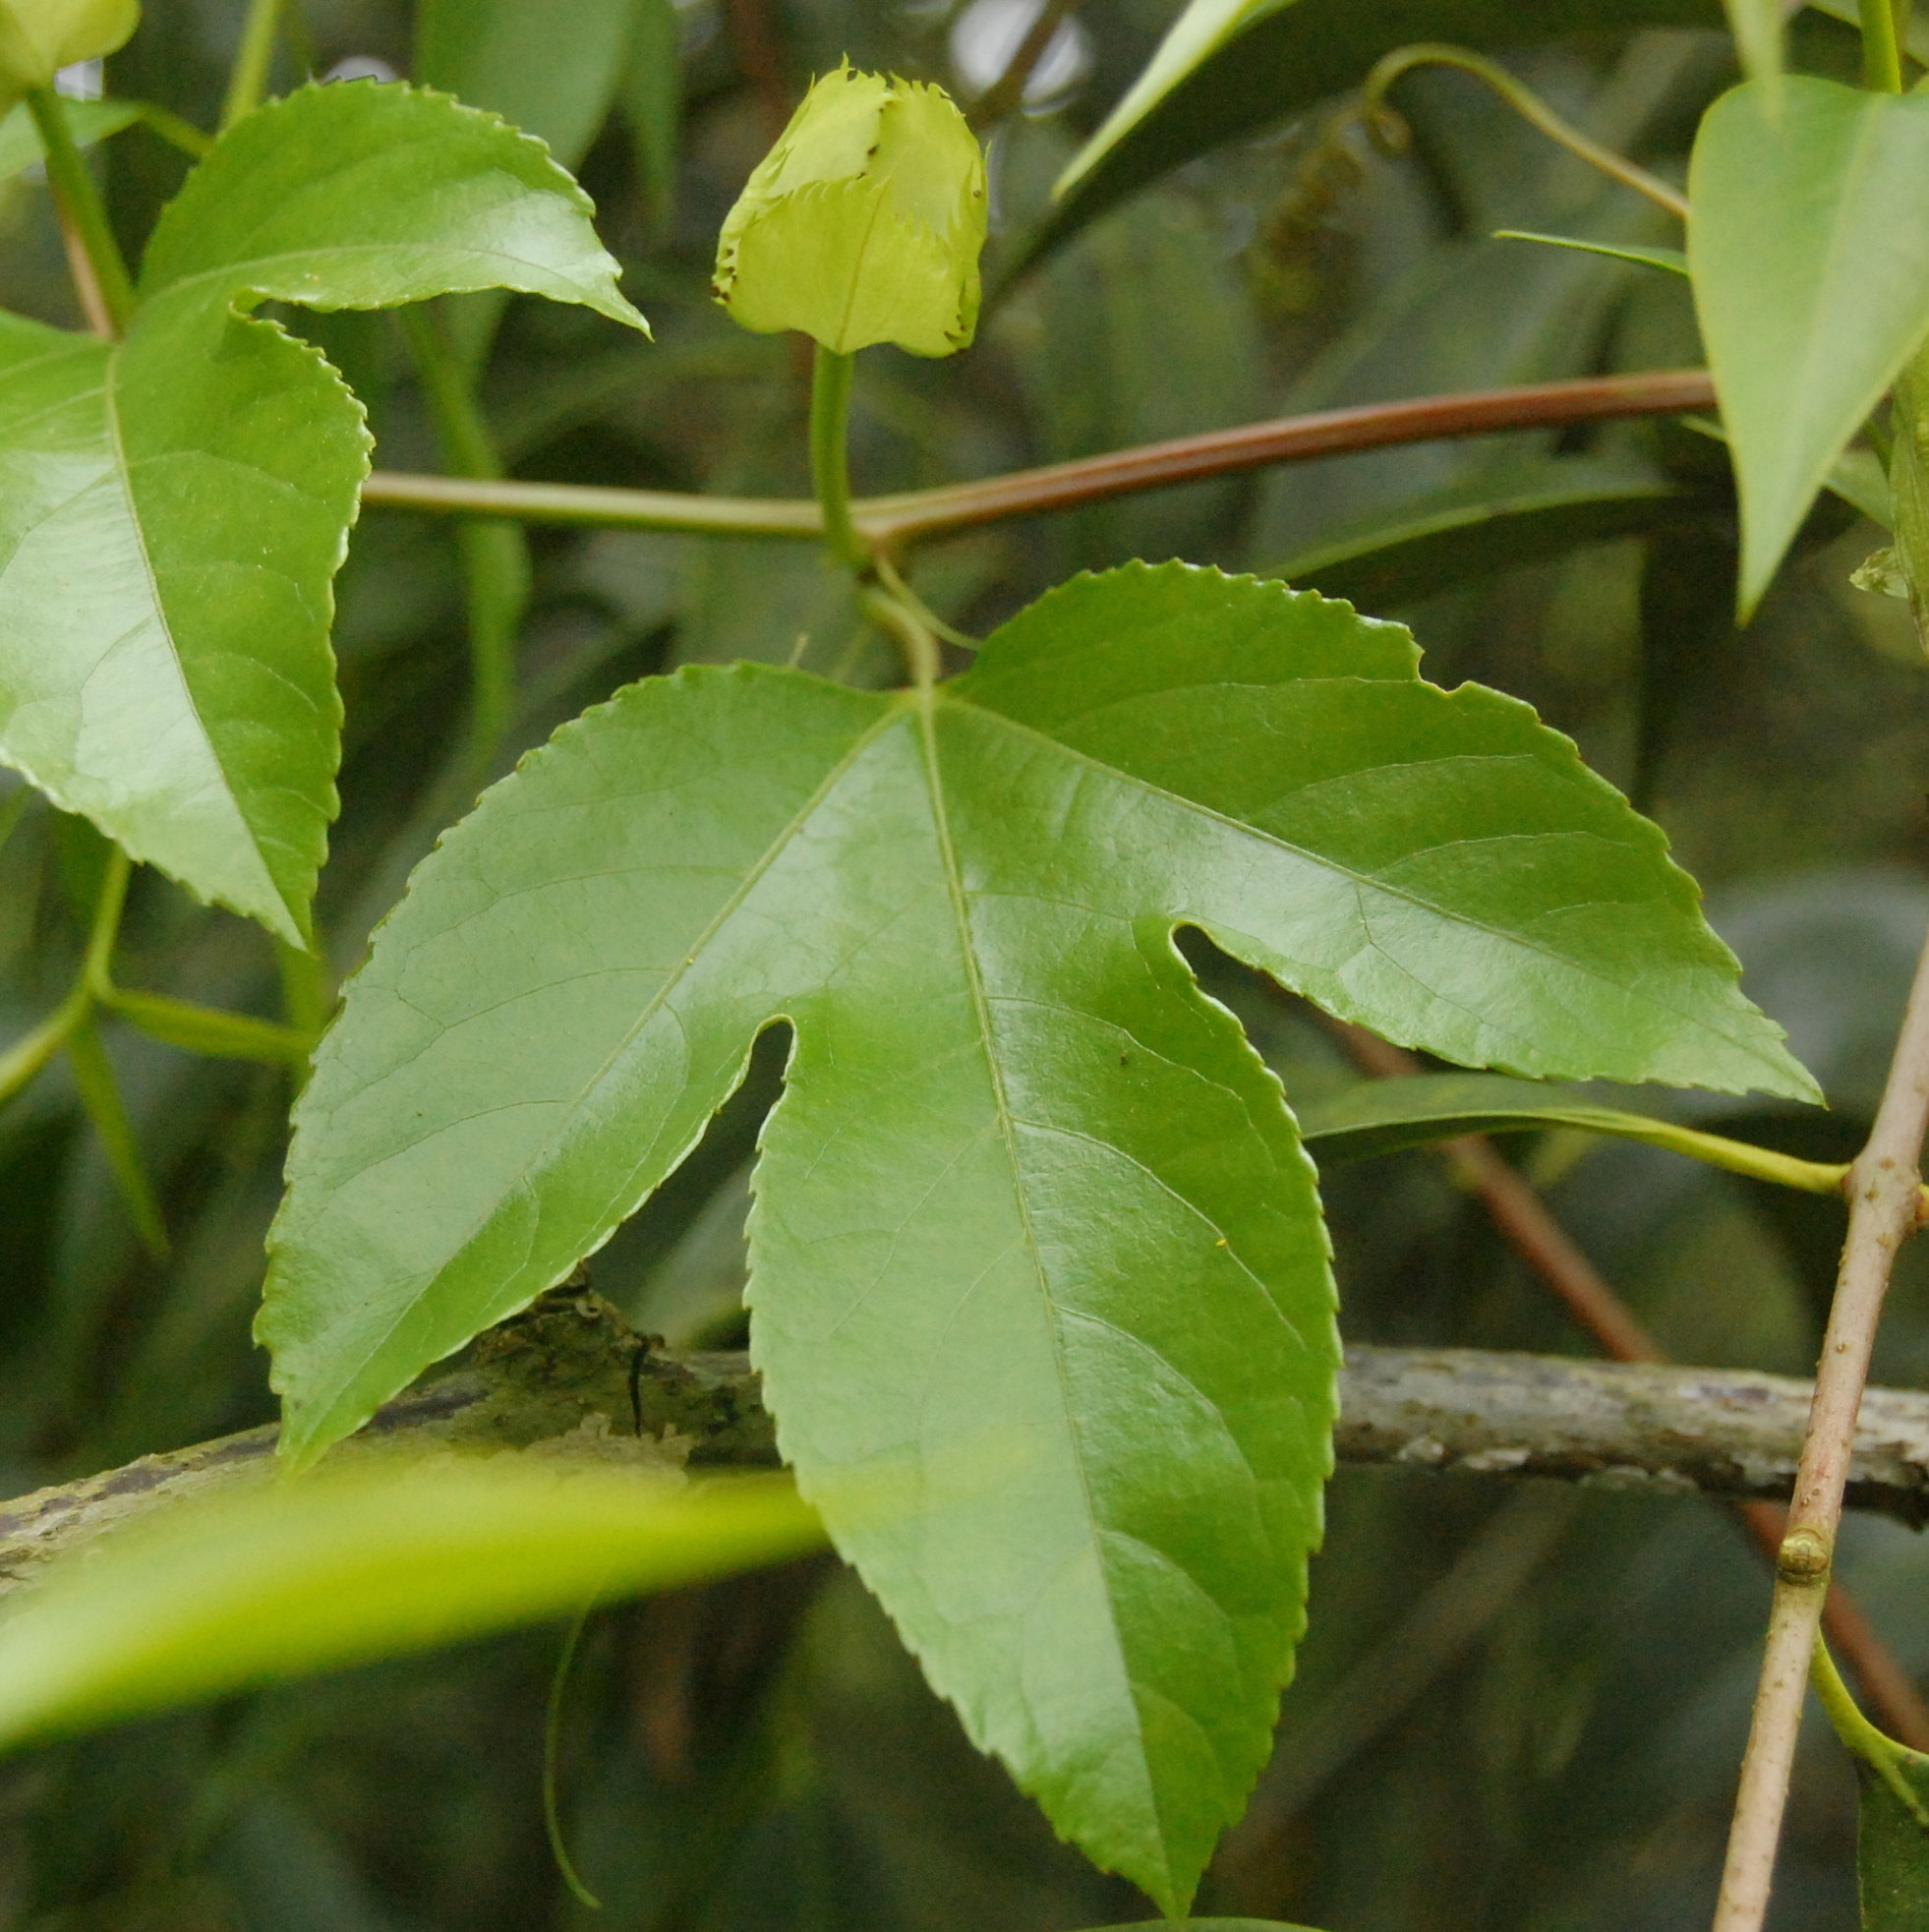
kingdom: Plantae
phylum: Tracheophyta
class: Magnoliopsida
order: Malpighiales
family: Passifloraceae
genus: Passiflora
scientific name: Passiflora edulis
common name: Purple granadilla
